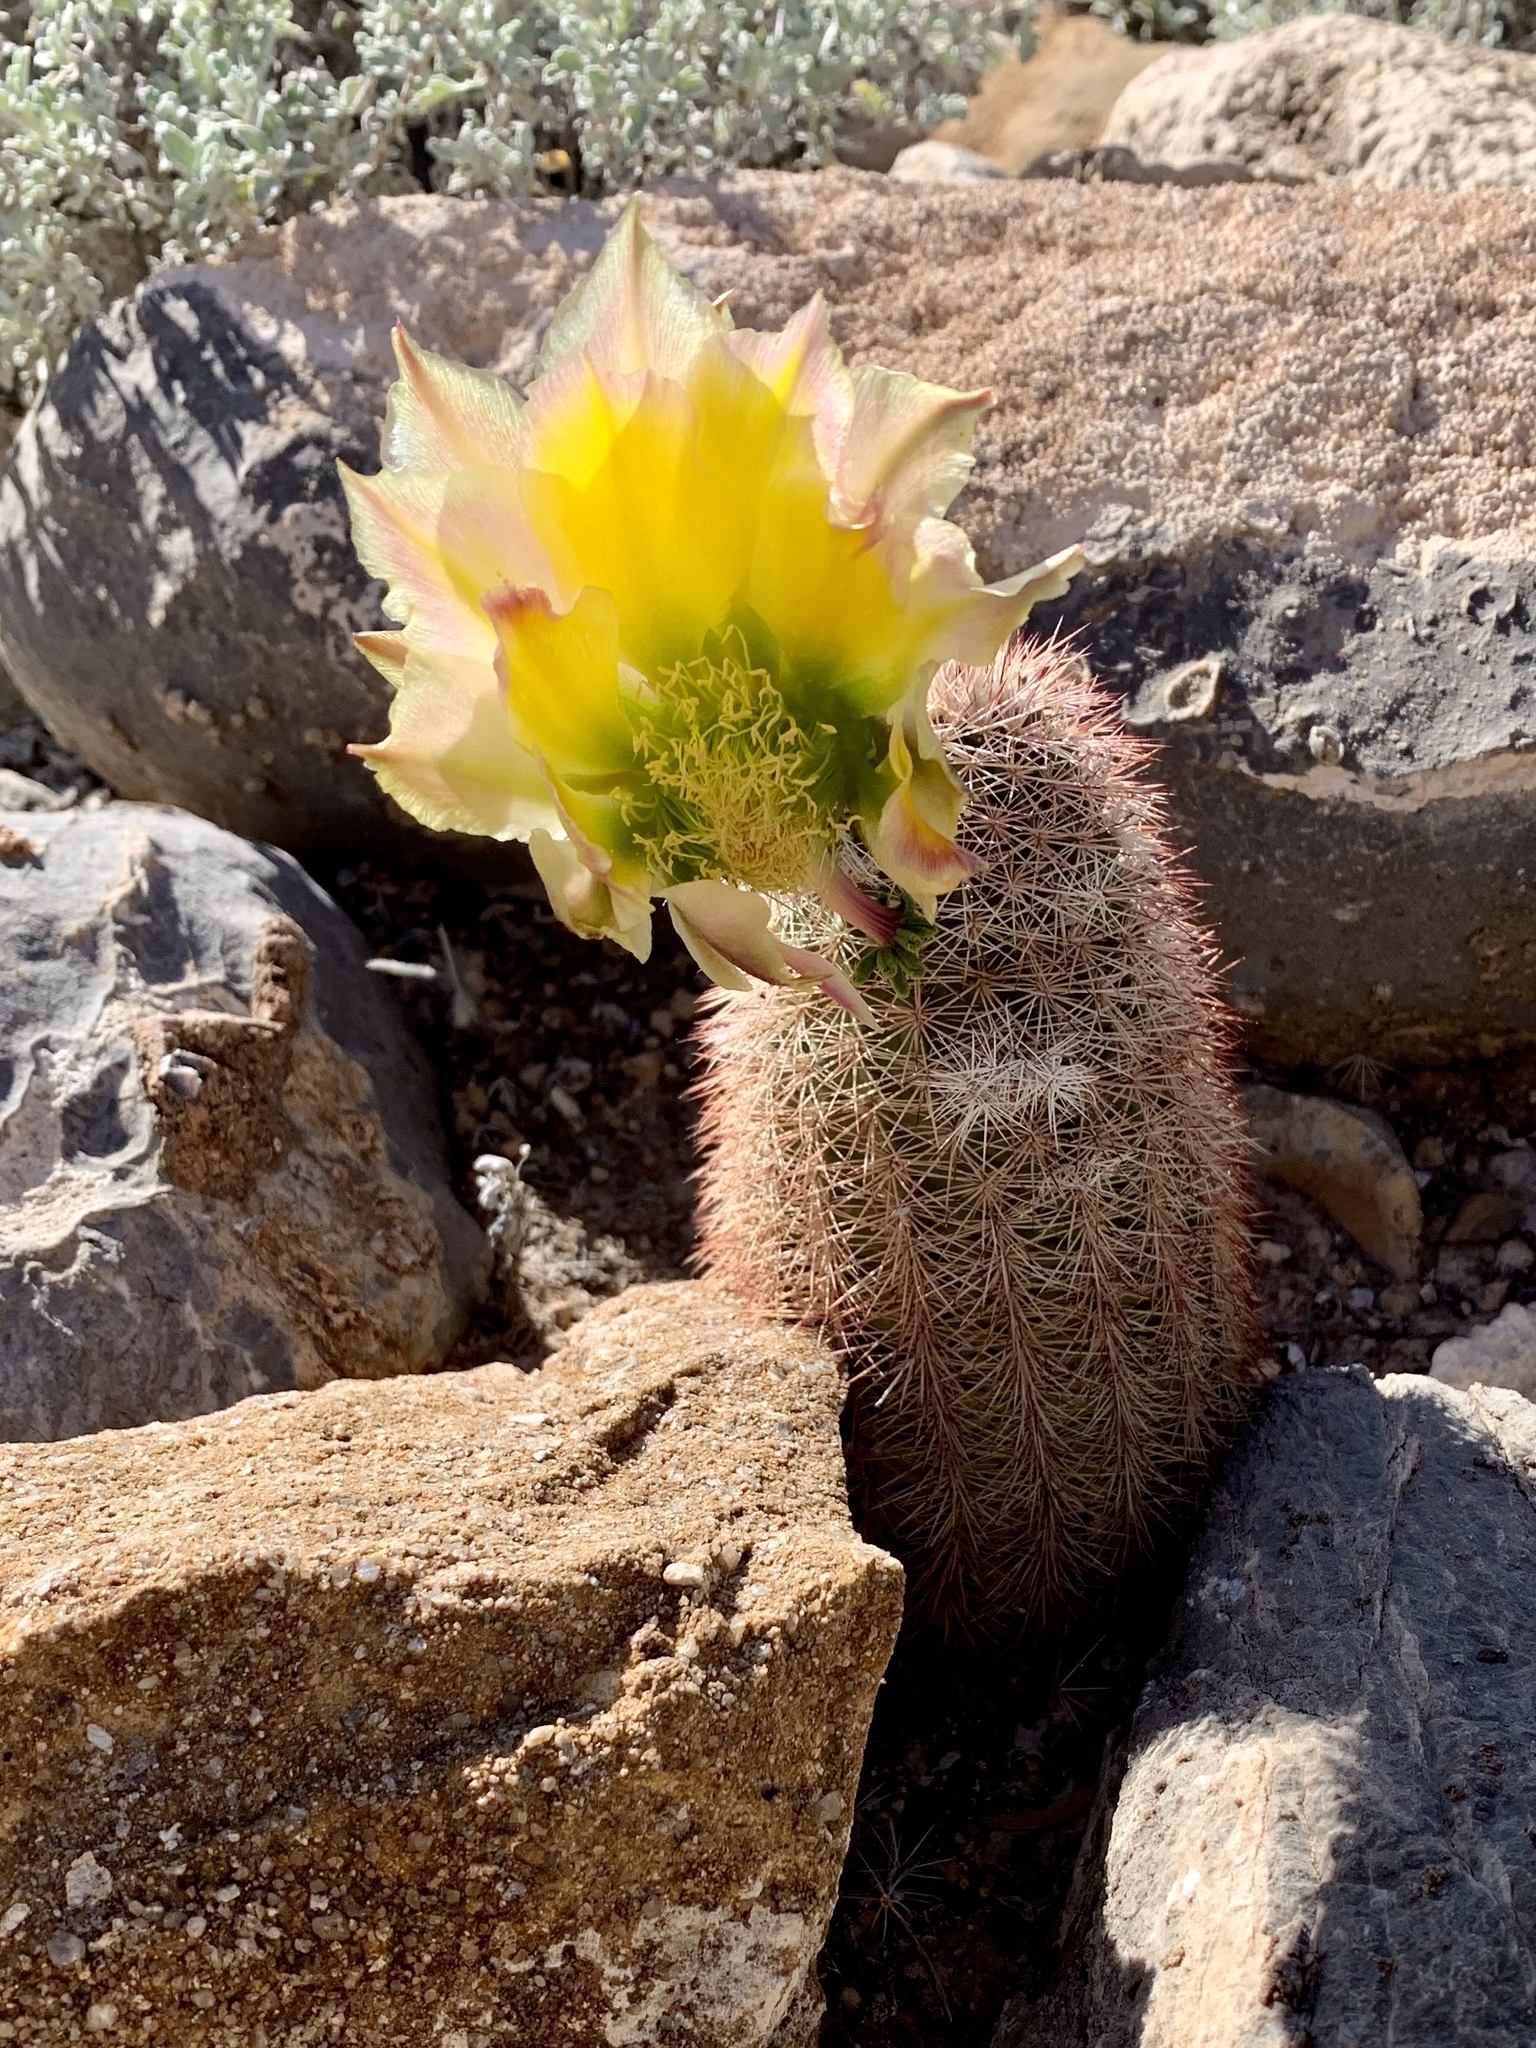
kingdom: Plantae
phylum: Tracheophyta
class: Magnoliopsida
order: Caryophyllales
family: Cactaceae
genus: Echinocereus
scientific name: Echinocereus dasyacanthus
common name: Spiny hedgehog cactus
